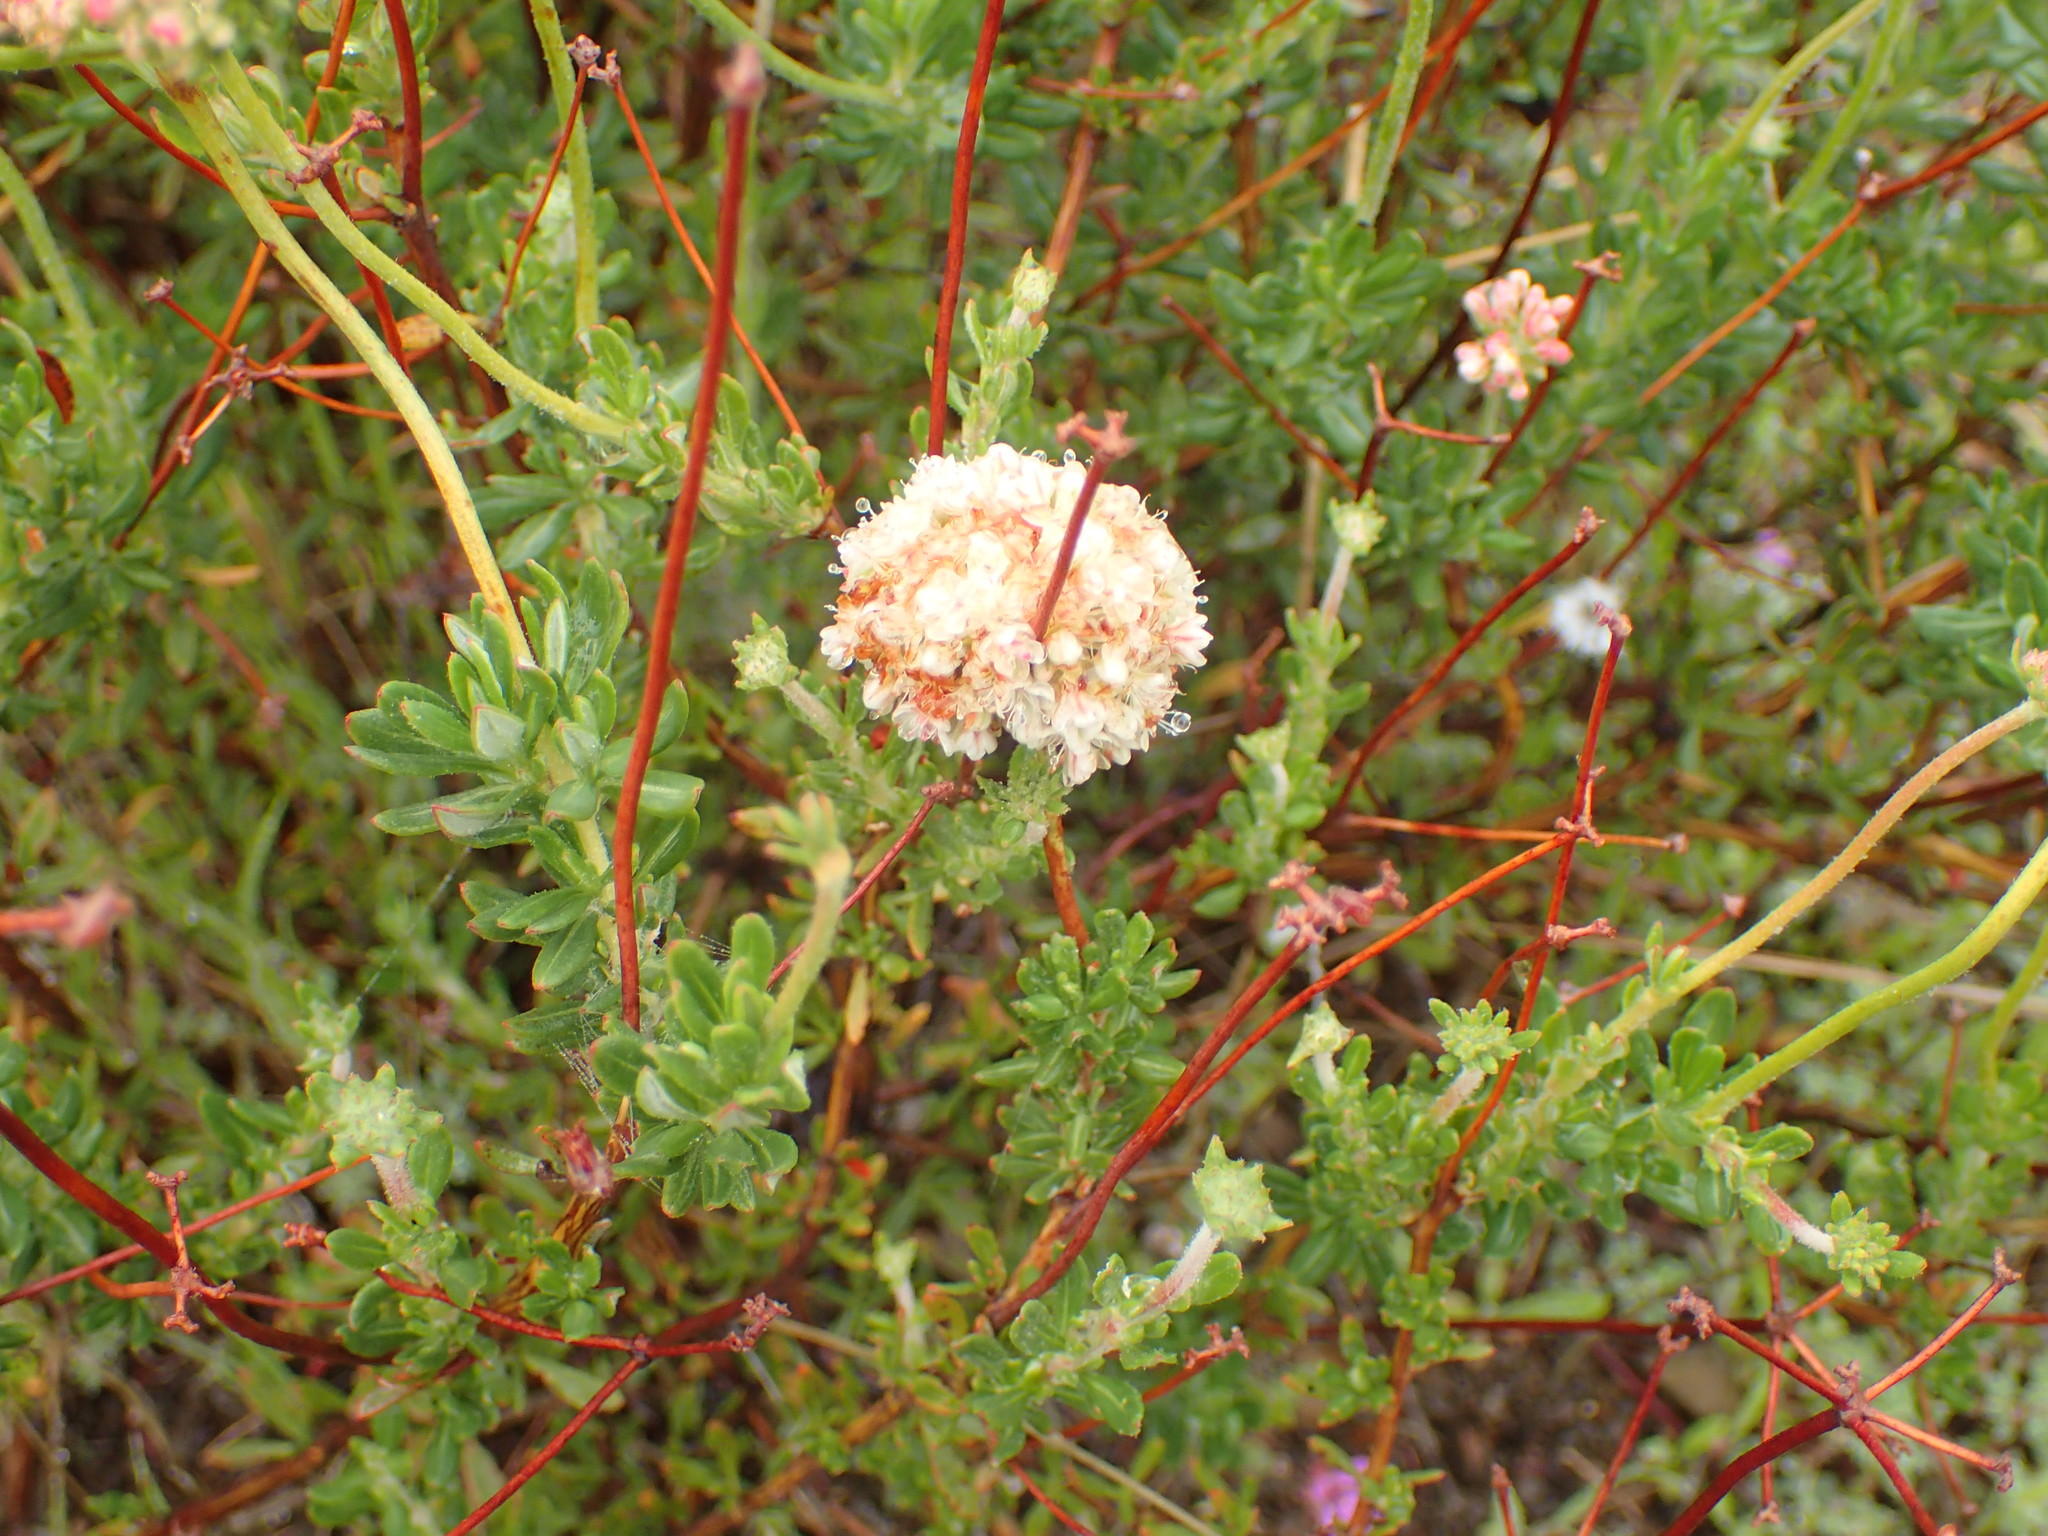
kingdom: Plantae
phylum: Tracheophyta
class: Magnoliopsida
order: Caryophyllales
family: Polygonaceae
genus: Eriogonum
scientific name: Eriogonum fasciculatum
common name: California wild buckwheat
